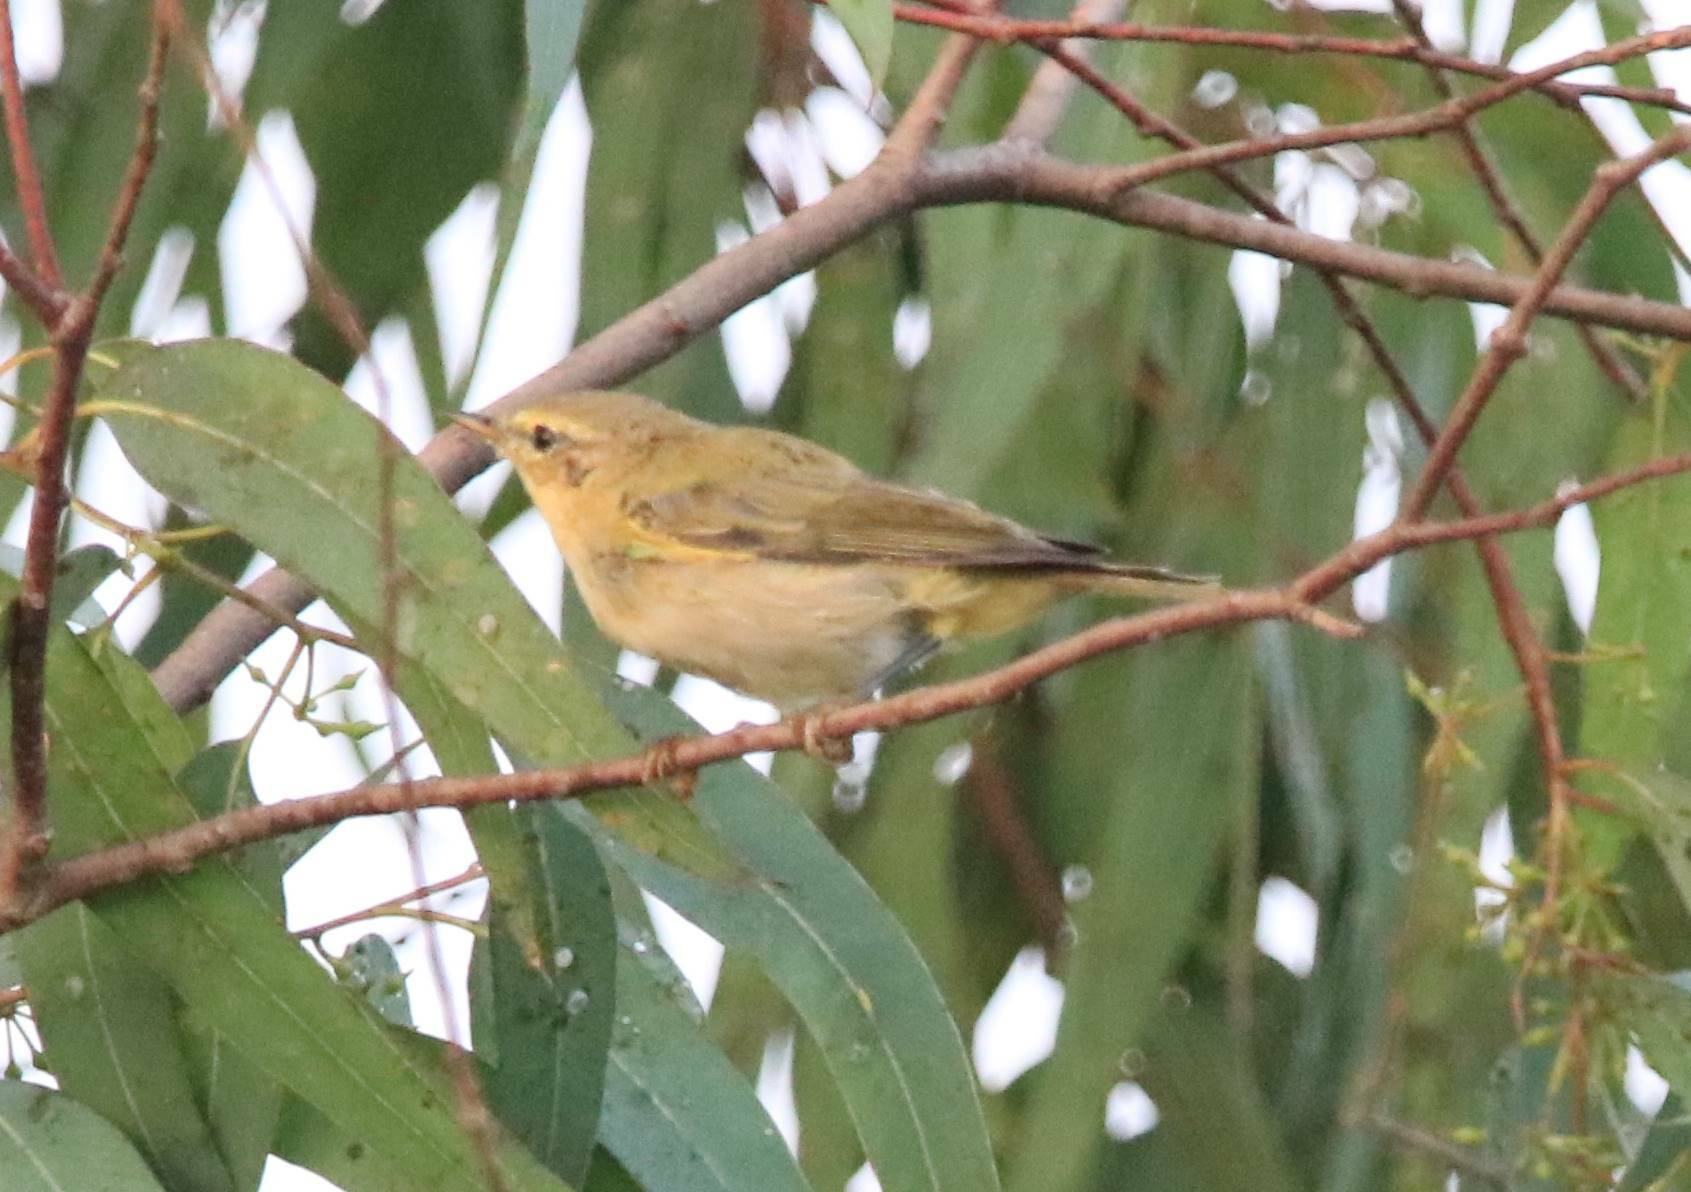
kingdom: Animalia
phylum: Chordata
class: Aves
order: Passeriformes
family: Phylloscopidae
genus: Phylloscopus
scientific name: Phylloscopus collybita
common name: Common chiffchaff
